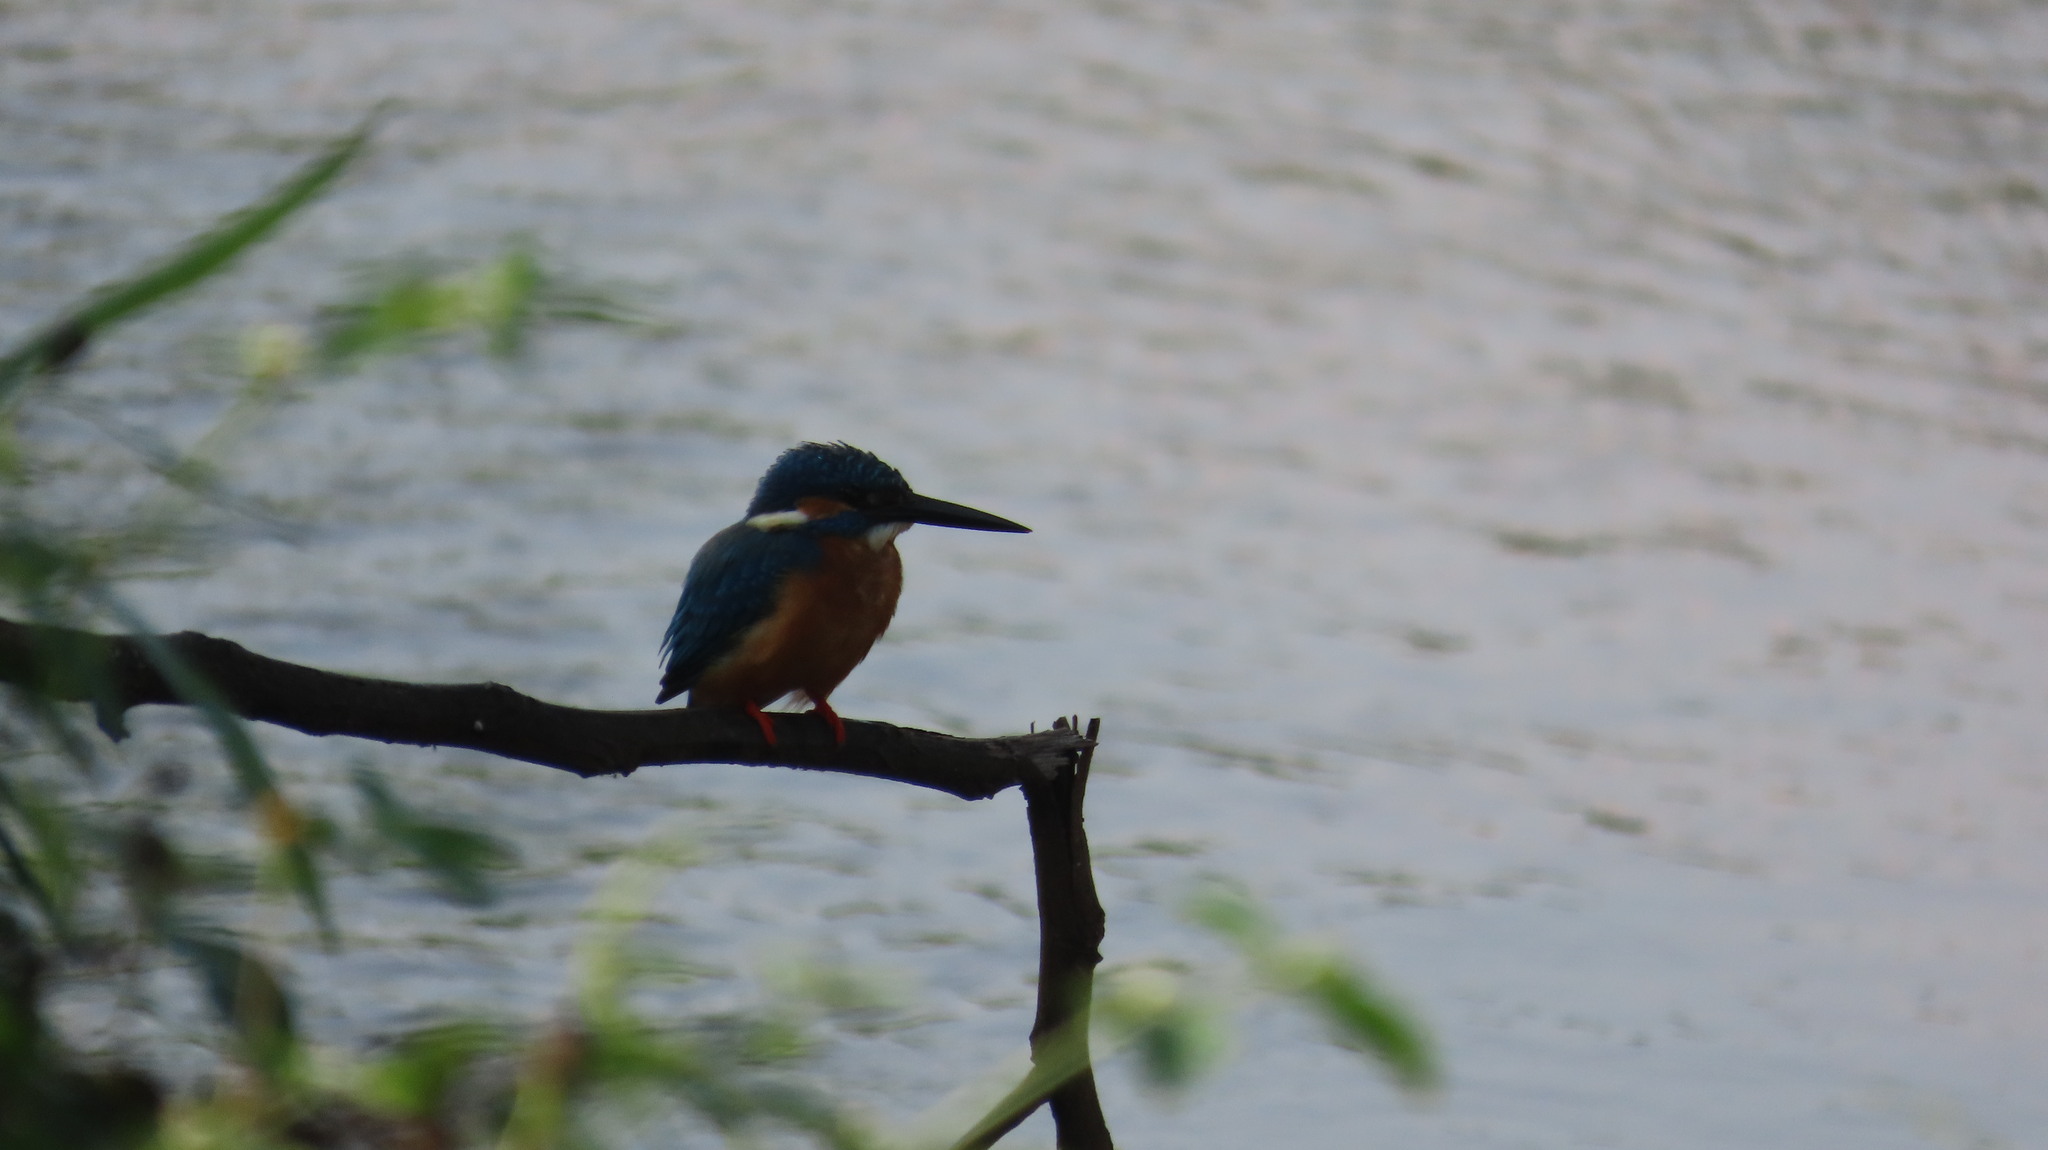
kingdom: Animalia
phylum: Chordata
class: Aves
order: Coraciiformes
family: Alcedinidae
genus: Alcedo
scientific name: Alcedo atthis
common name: Common kingfisher
